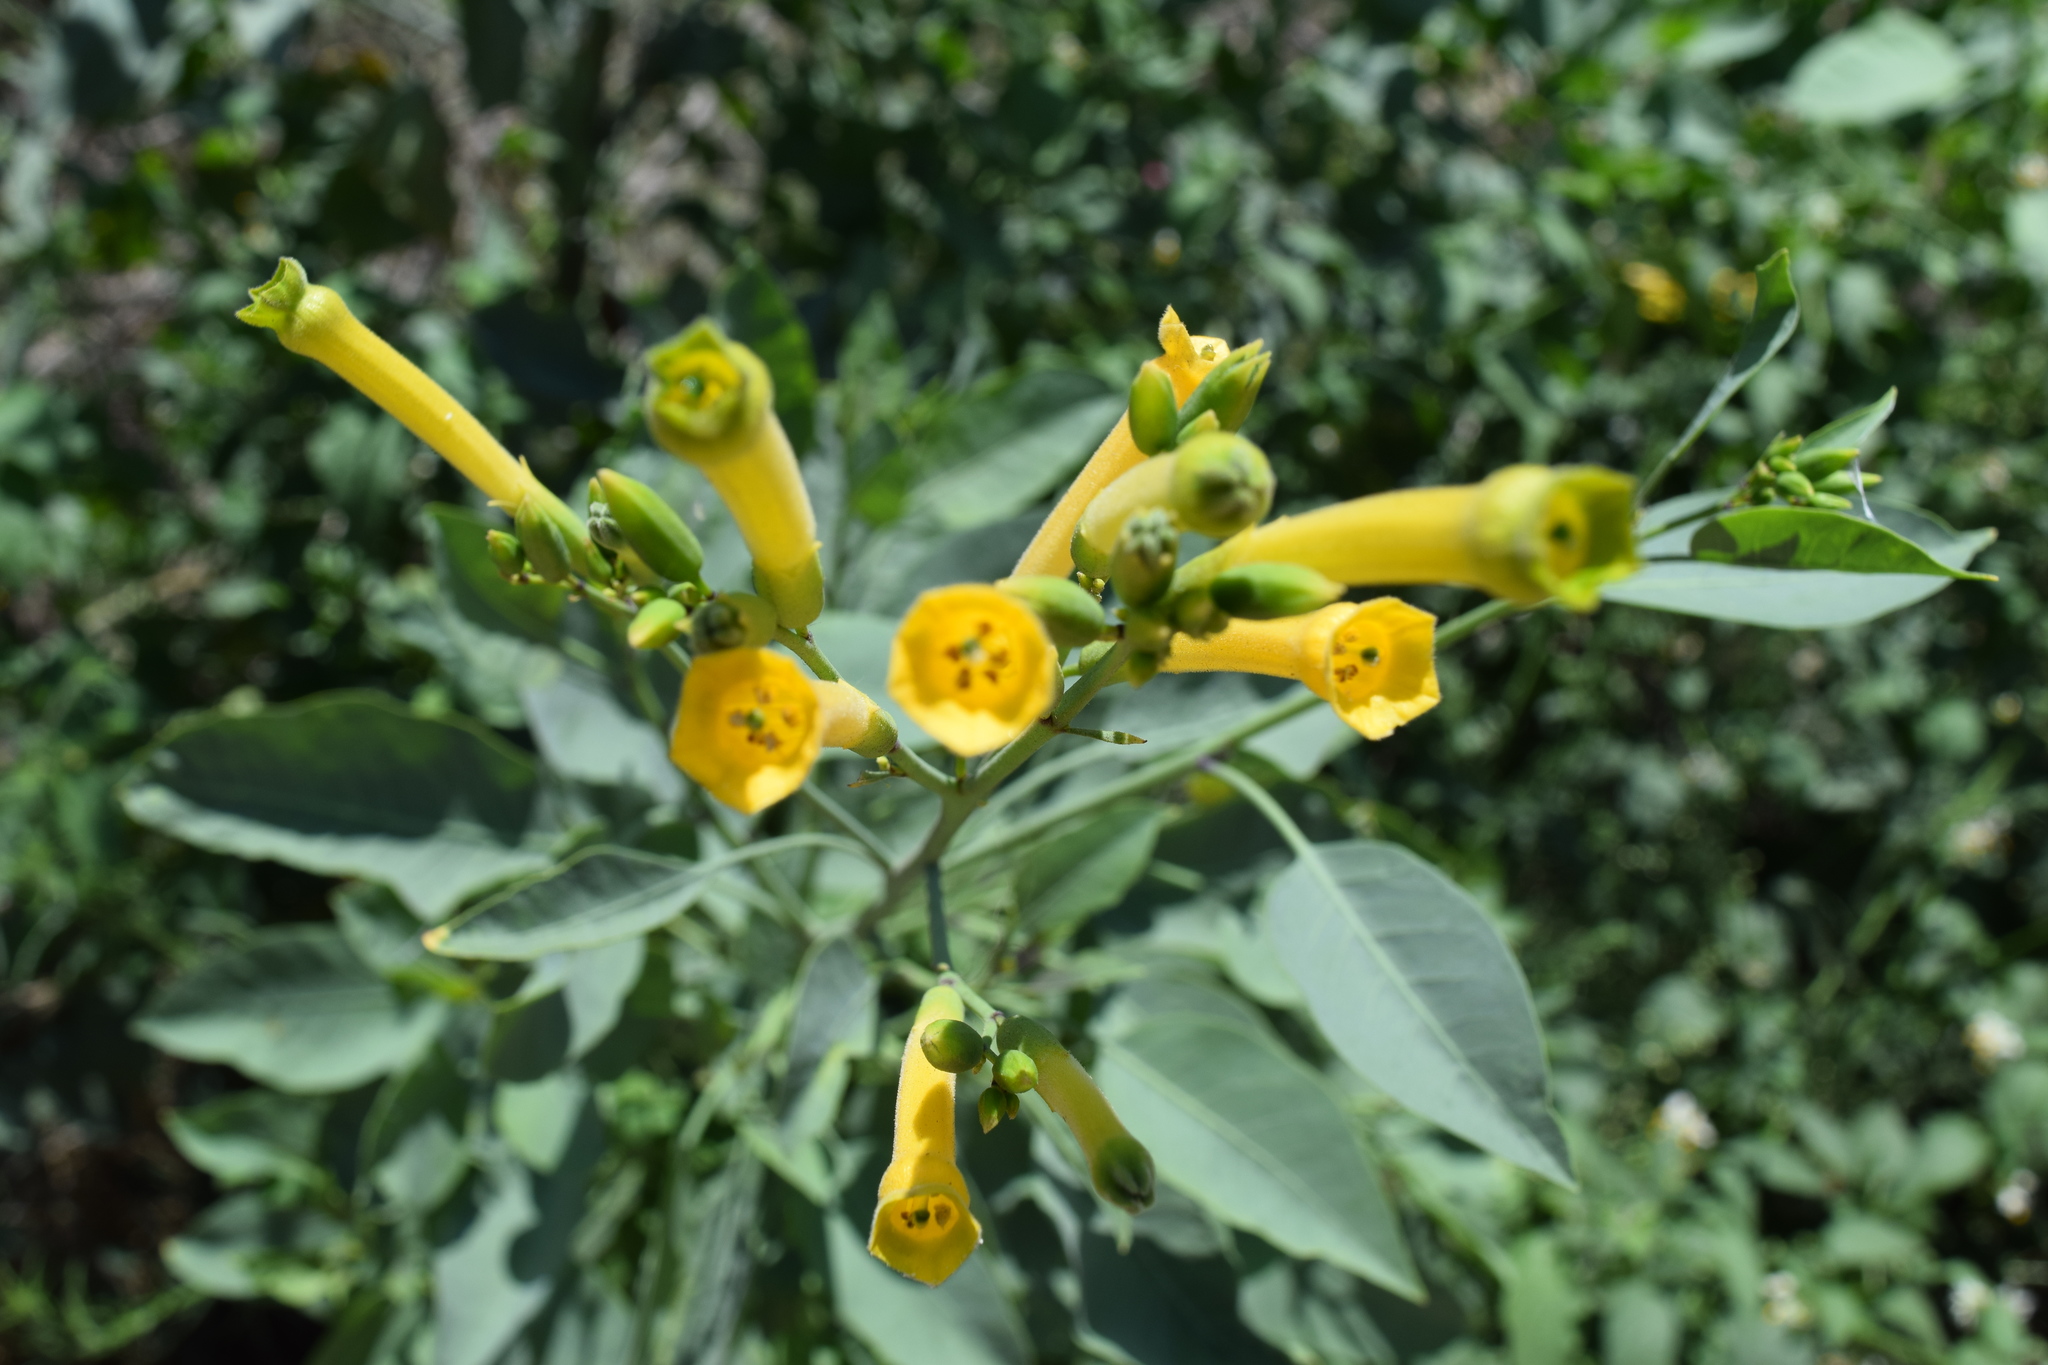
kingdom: Plantae
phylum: Tracheophyta
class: Magnoliopsida
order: Solanales
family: Solanaceae
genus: Nicotiana
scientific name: Nicotiana glauca
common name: Tree tobacco
